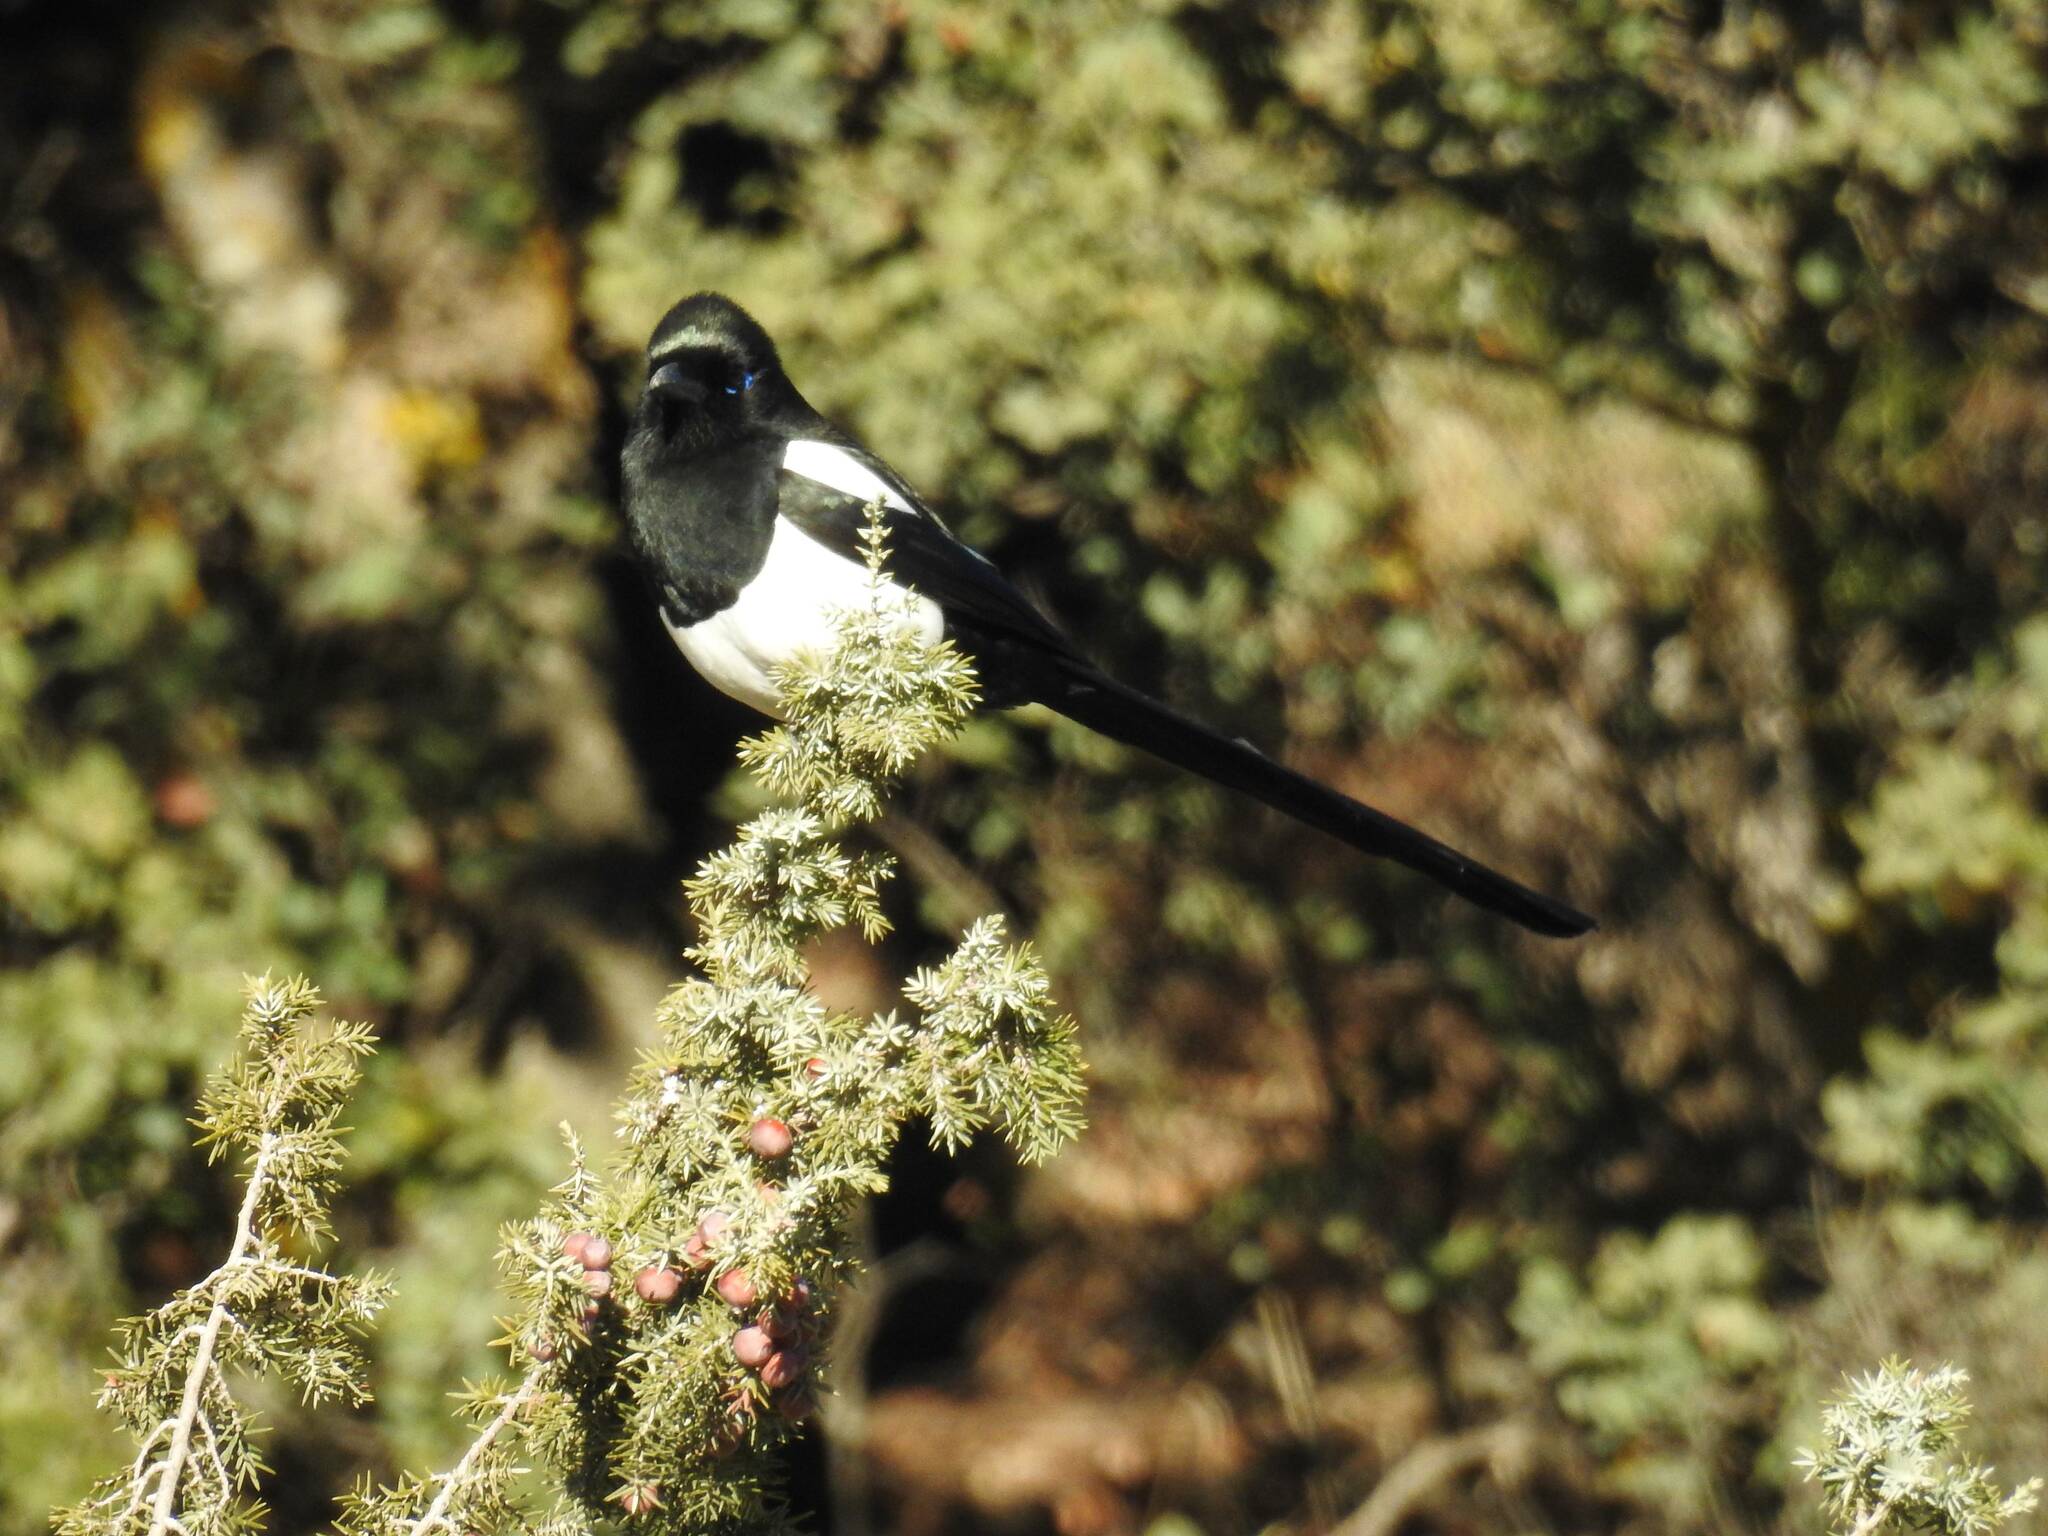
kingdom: Animalia
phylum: Chordata
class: Aves
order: Passeriformes
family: Corvidae
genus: Pica
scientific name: Pica mauritanica
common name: Maghreb magpie
